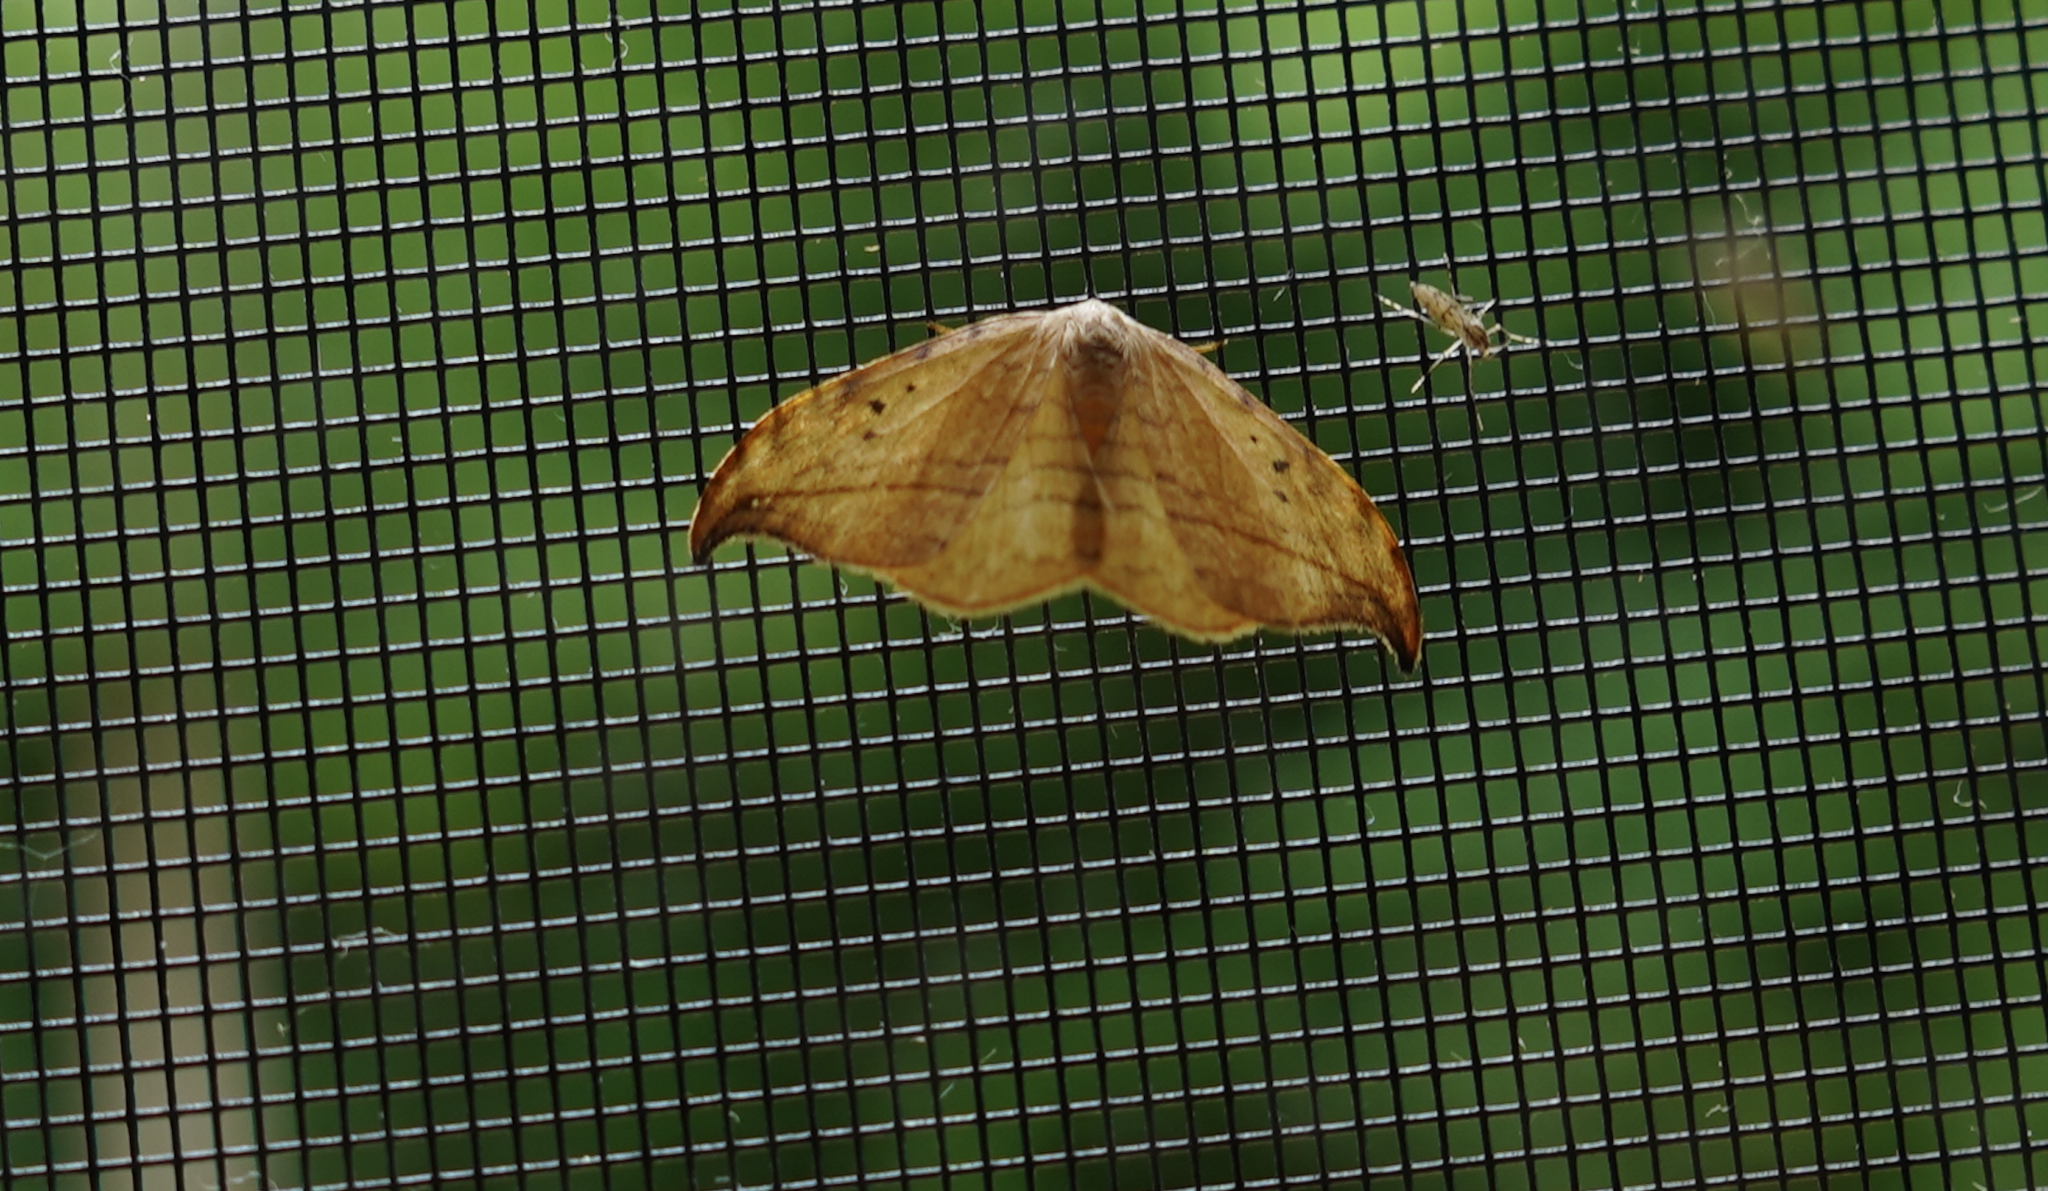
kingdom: Animalia
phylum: Arthropoda
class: Insecta
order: Lepidoptera
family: Drepanidae
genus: Drepana
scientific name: Drepana arcuata
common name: Arched hooktip moth
